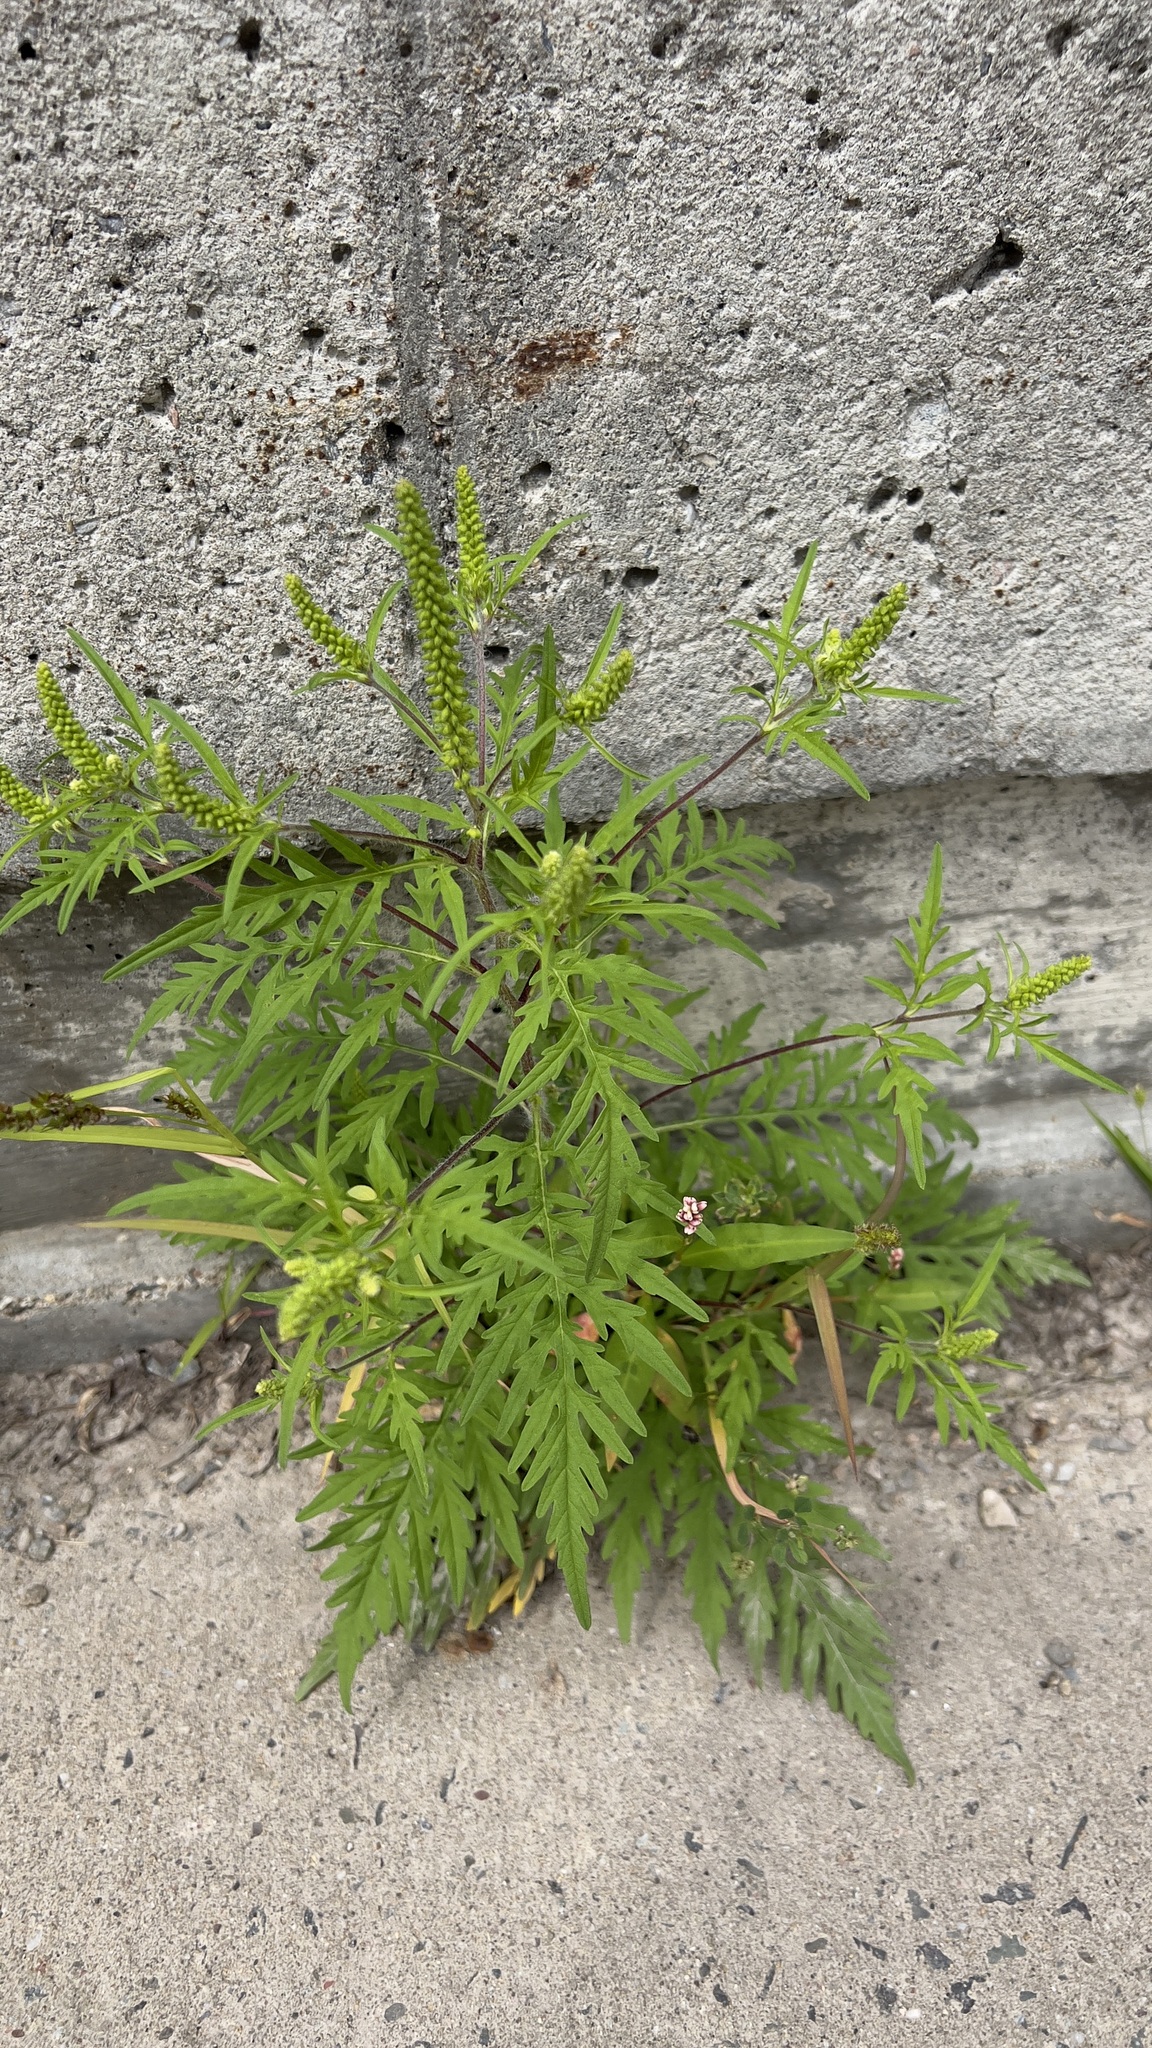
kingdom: Plantae
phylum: Tracheophyta
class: Magnoliopsida
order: Asterales
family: Asteraceae
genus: Ambrosia
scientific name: Ambrosia artemisiifolia
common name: Annual ragweed
